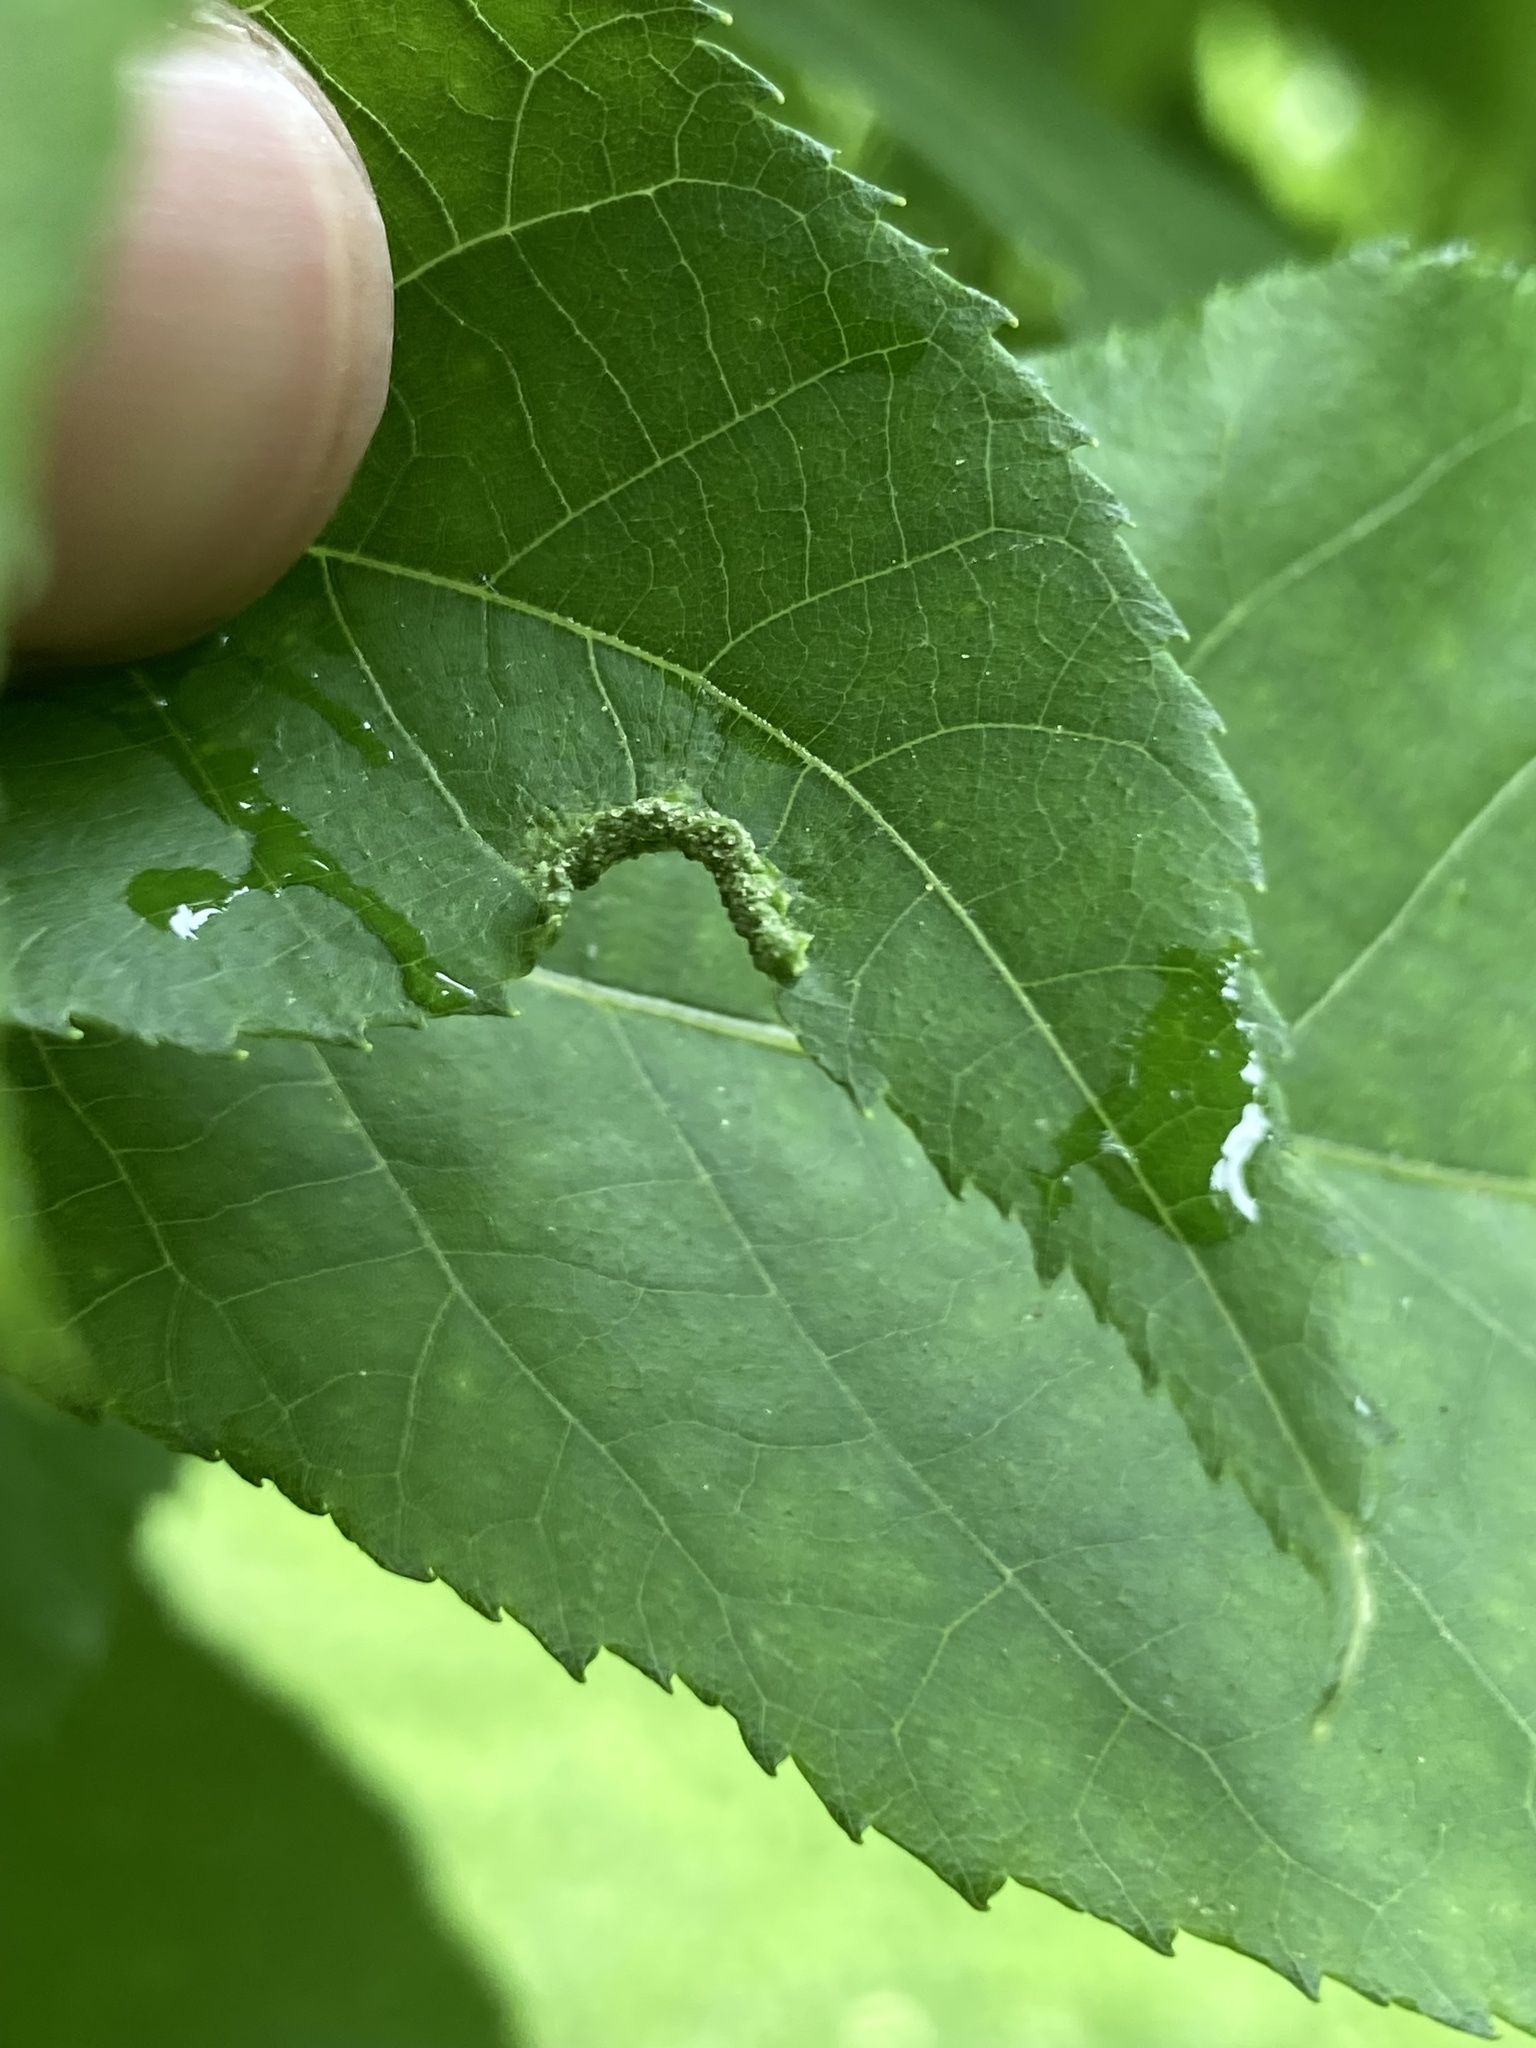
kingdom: Animalia
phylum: Arthropoda
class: Arachnida
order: Trombidiformes
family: Eriophyidae
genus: Aceria
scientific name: Aceria carlinae
